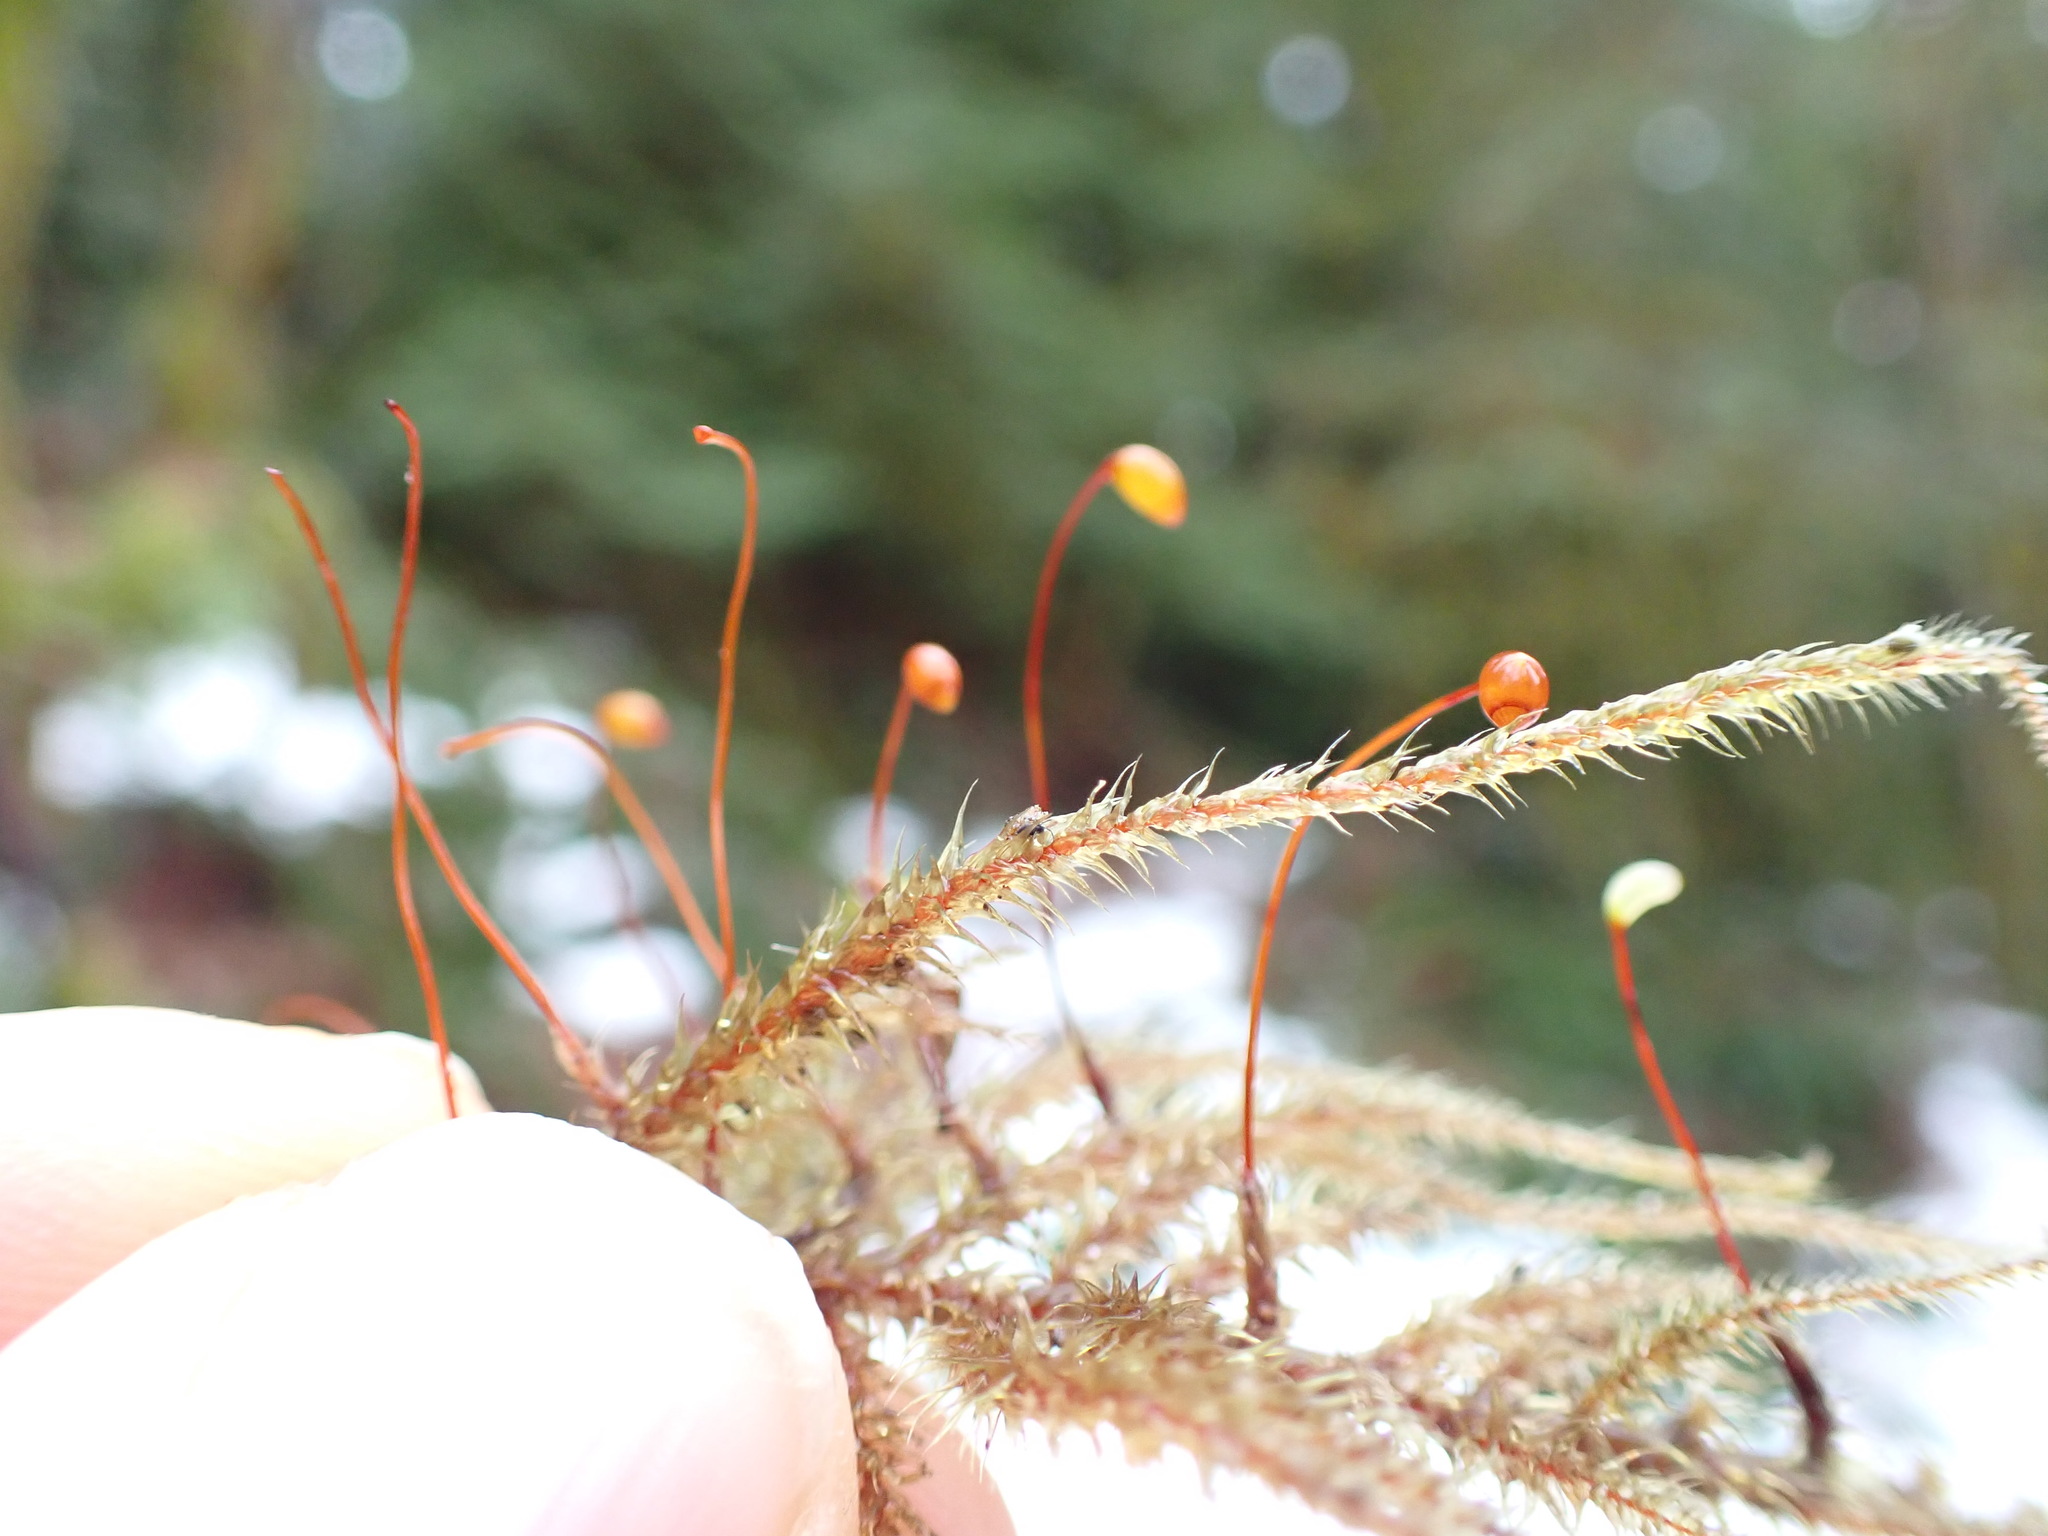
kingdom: Plantae
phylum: Bryophyta
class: Bryopsida
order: Hypnales
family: Hylocomiaceae
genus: Rhytidiadelphus
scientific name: Rhytidiadelphus loreus
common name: Lanky moss
